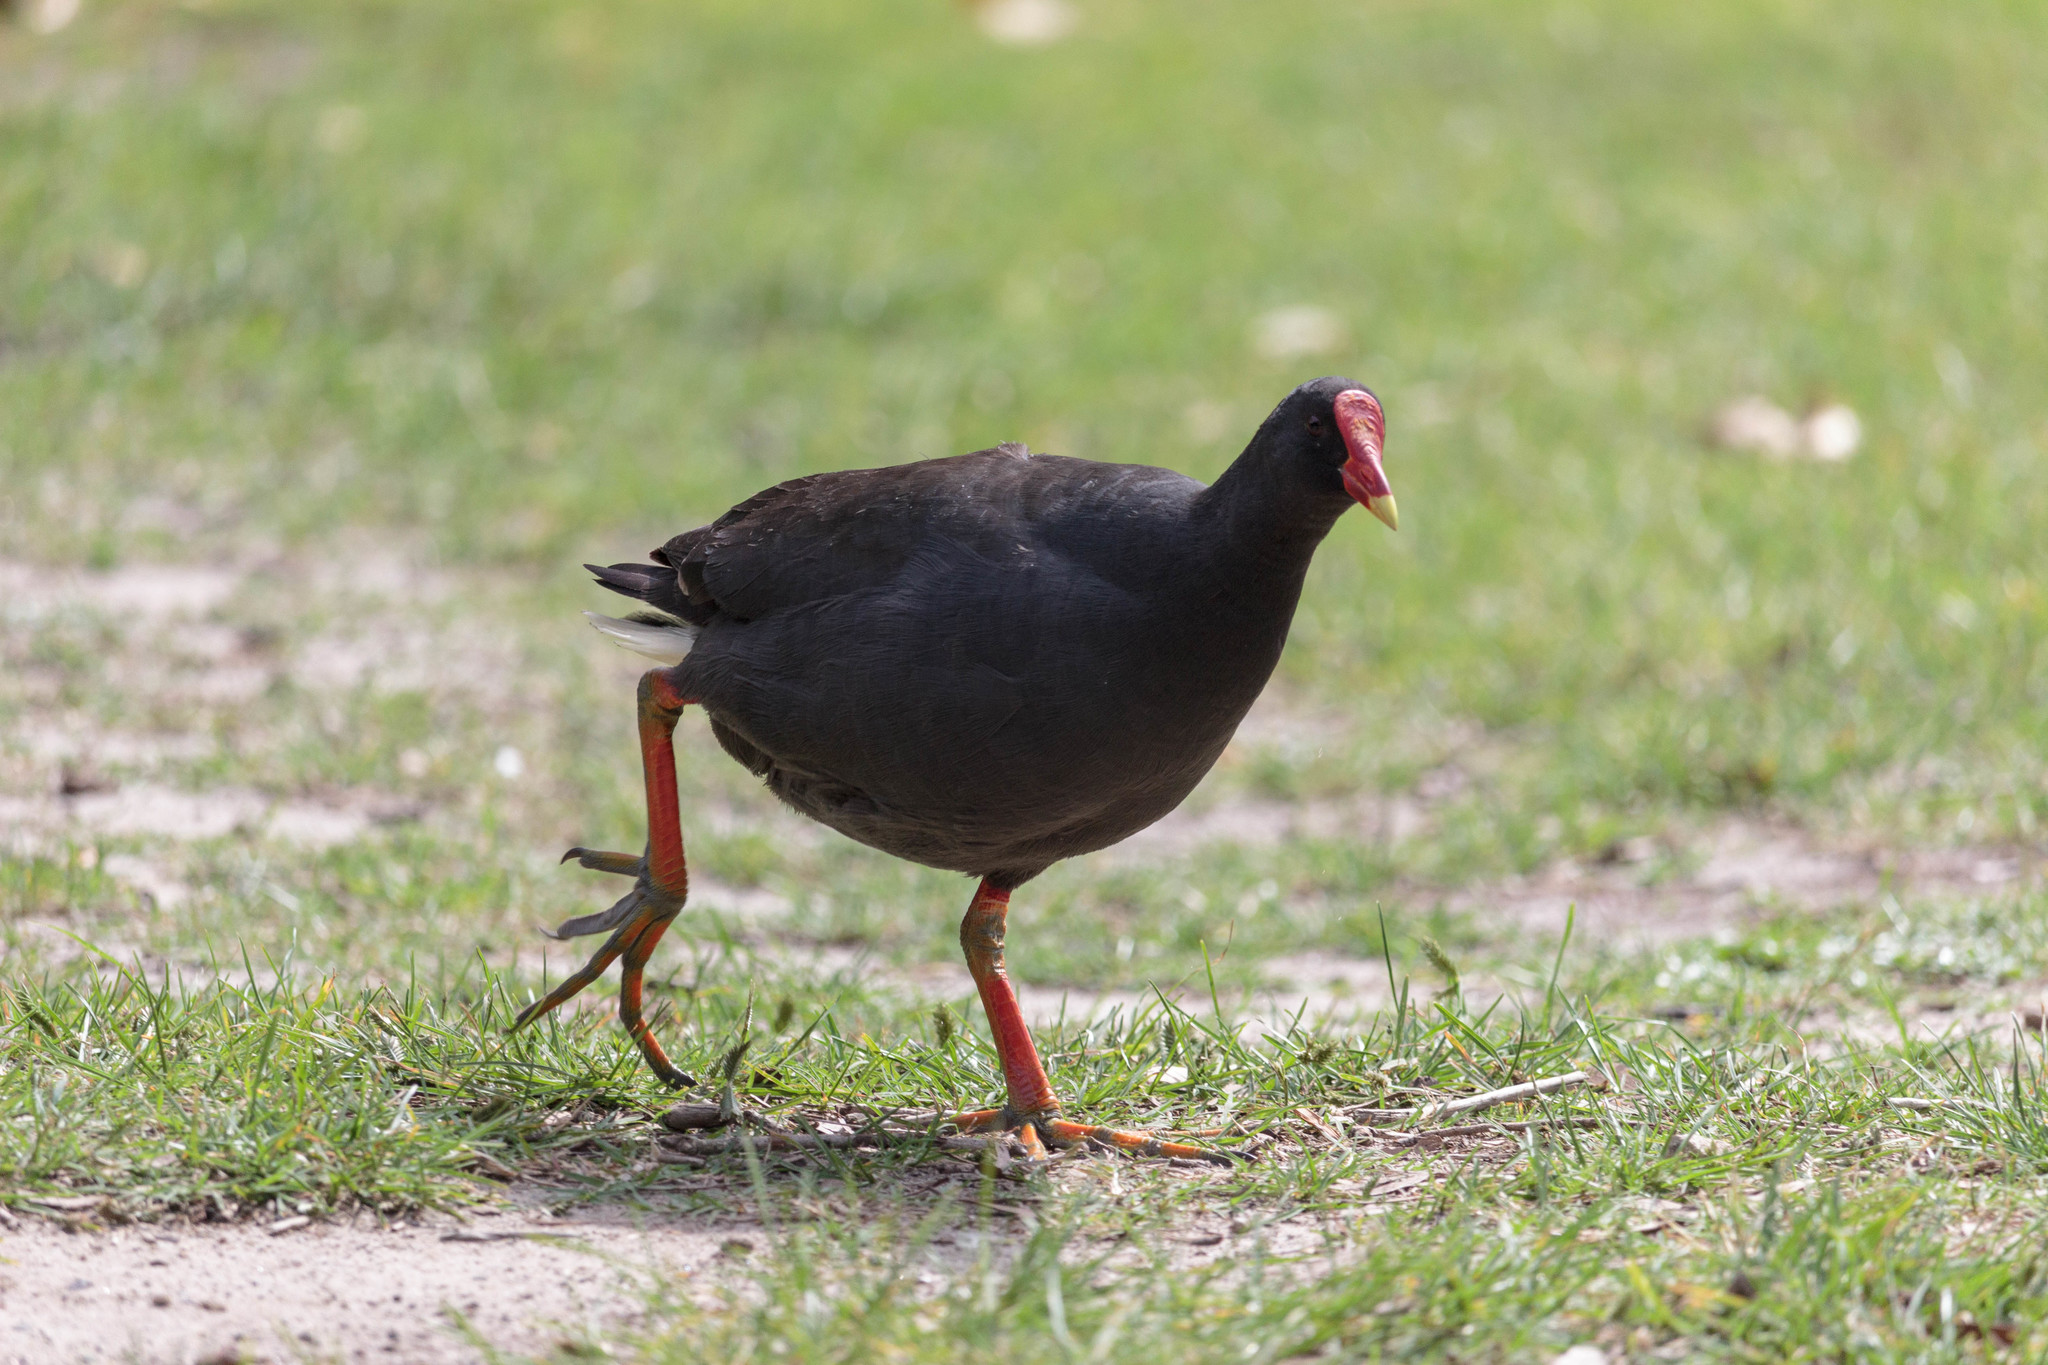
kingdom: Animalia
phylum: Chordata
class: Aves
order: Gruiformes
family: Rallidae
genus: Gallinula
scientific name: Gallinula tenebrosa
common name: Dusky moorhen
